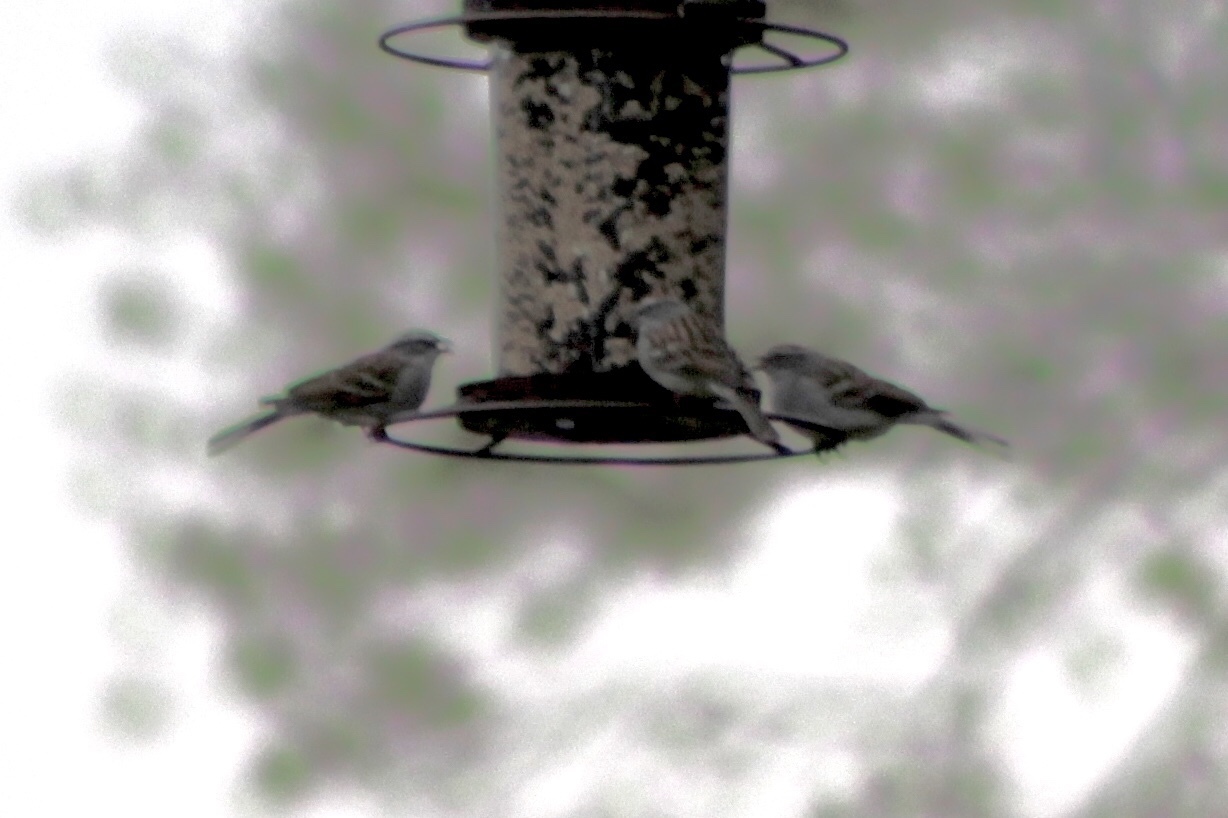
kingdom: Animalia
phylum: Chordata
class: Aves
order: Passeriformes
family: Passerellidae
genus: Spizella
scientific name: Spizella passerina
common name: Chipping sparrow
